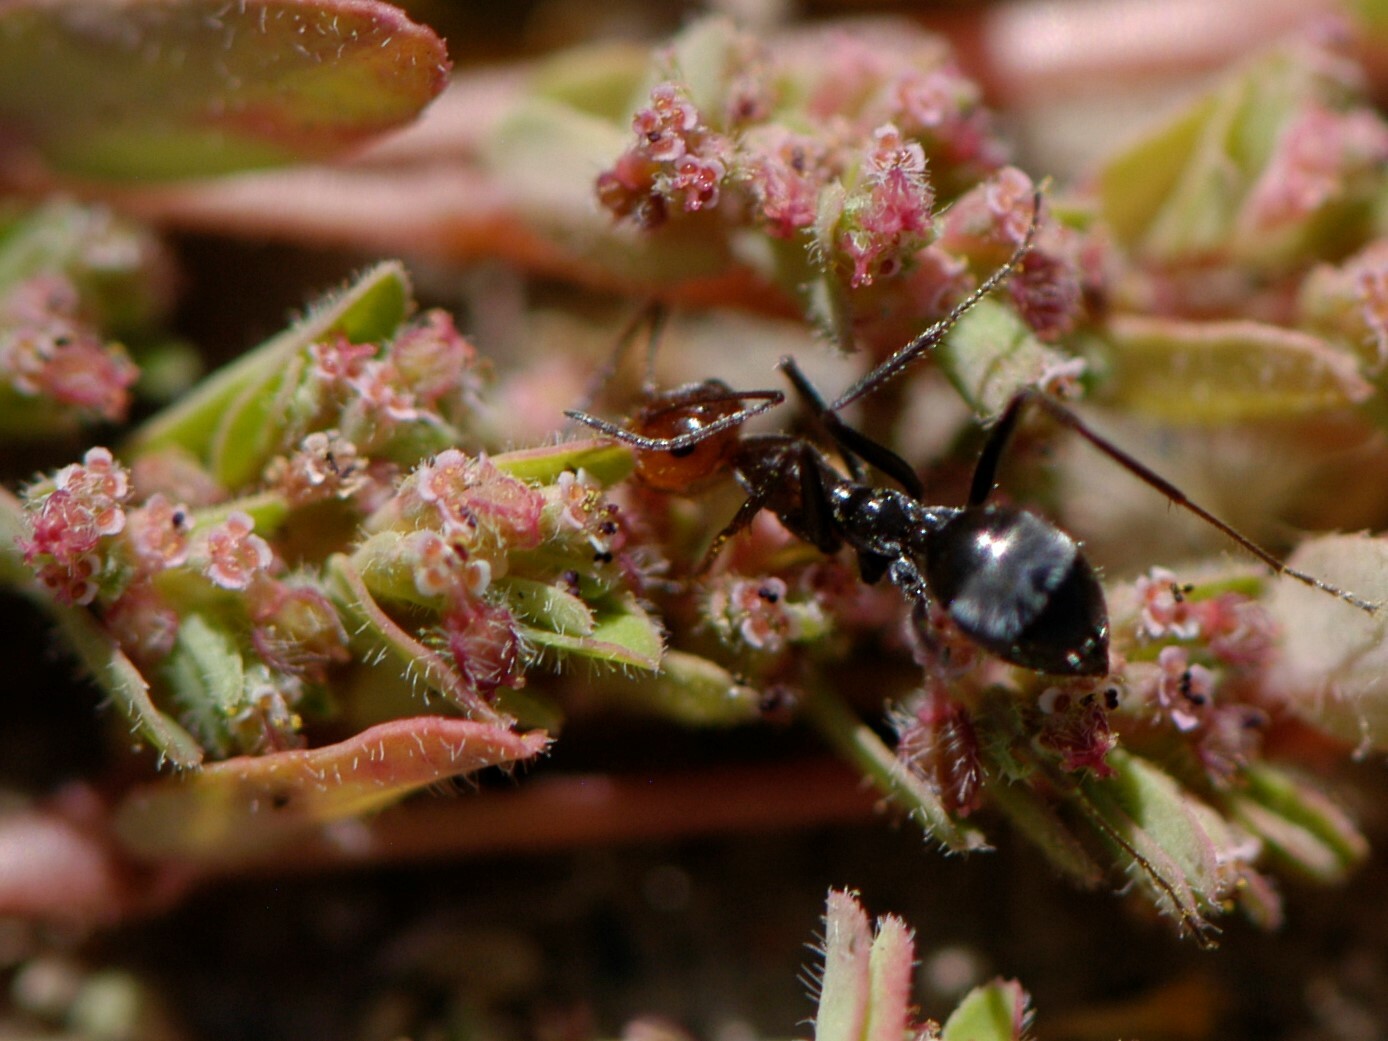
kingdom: Animalia
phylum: Arthropoda
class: Insecta
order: Hymenoptera
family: Formicidae
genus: Myrmecocystus
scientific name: Myrmecocystus
